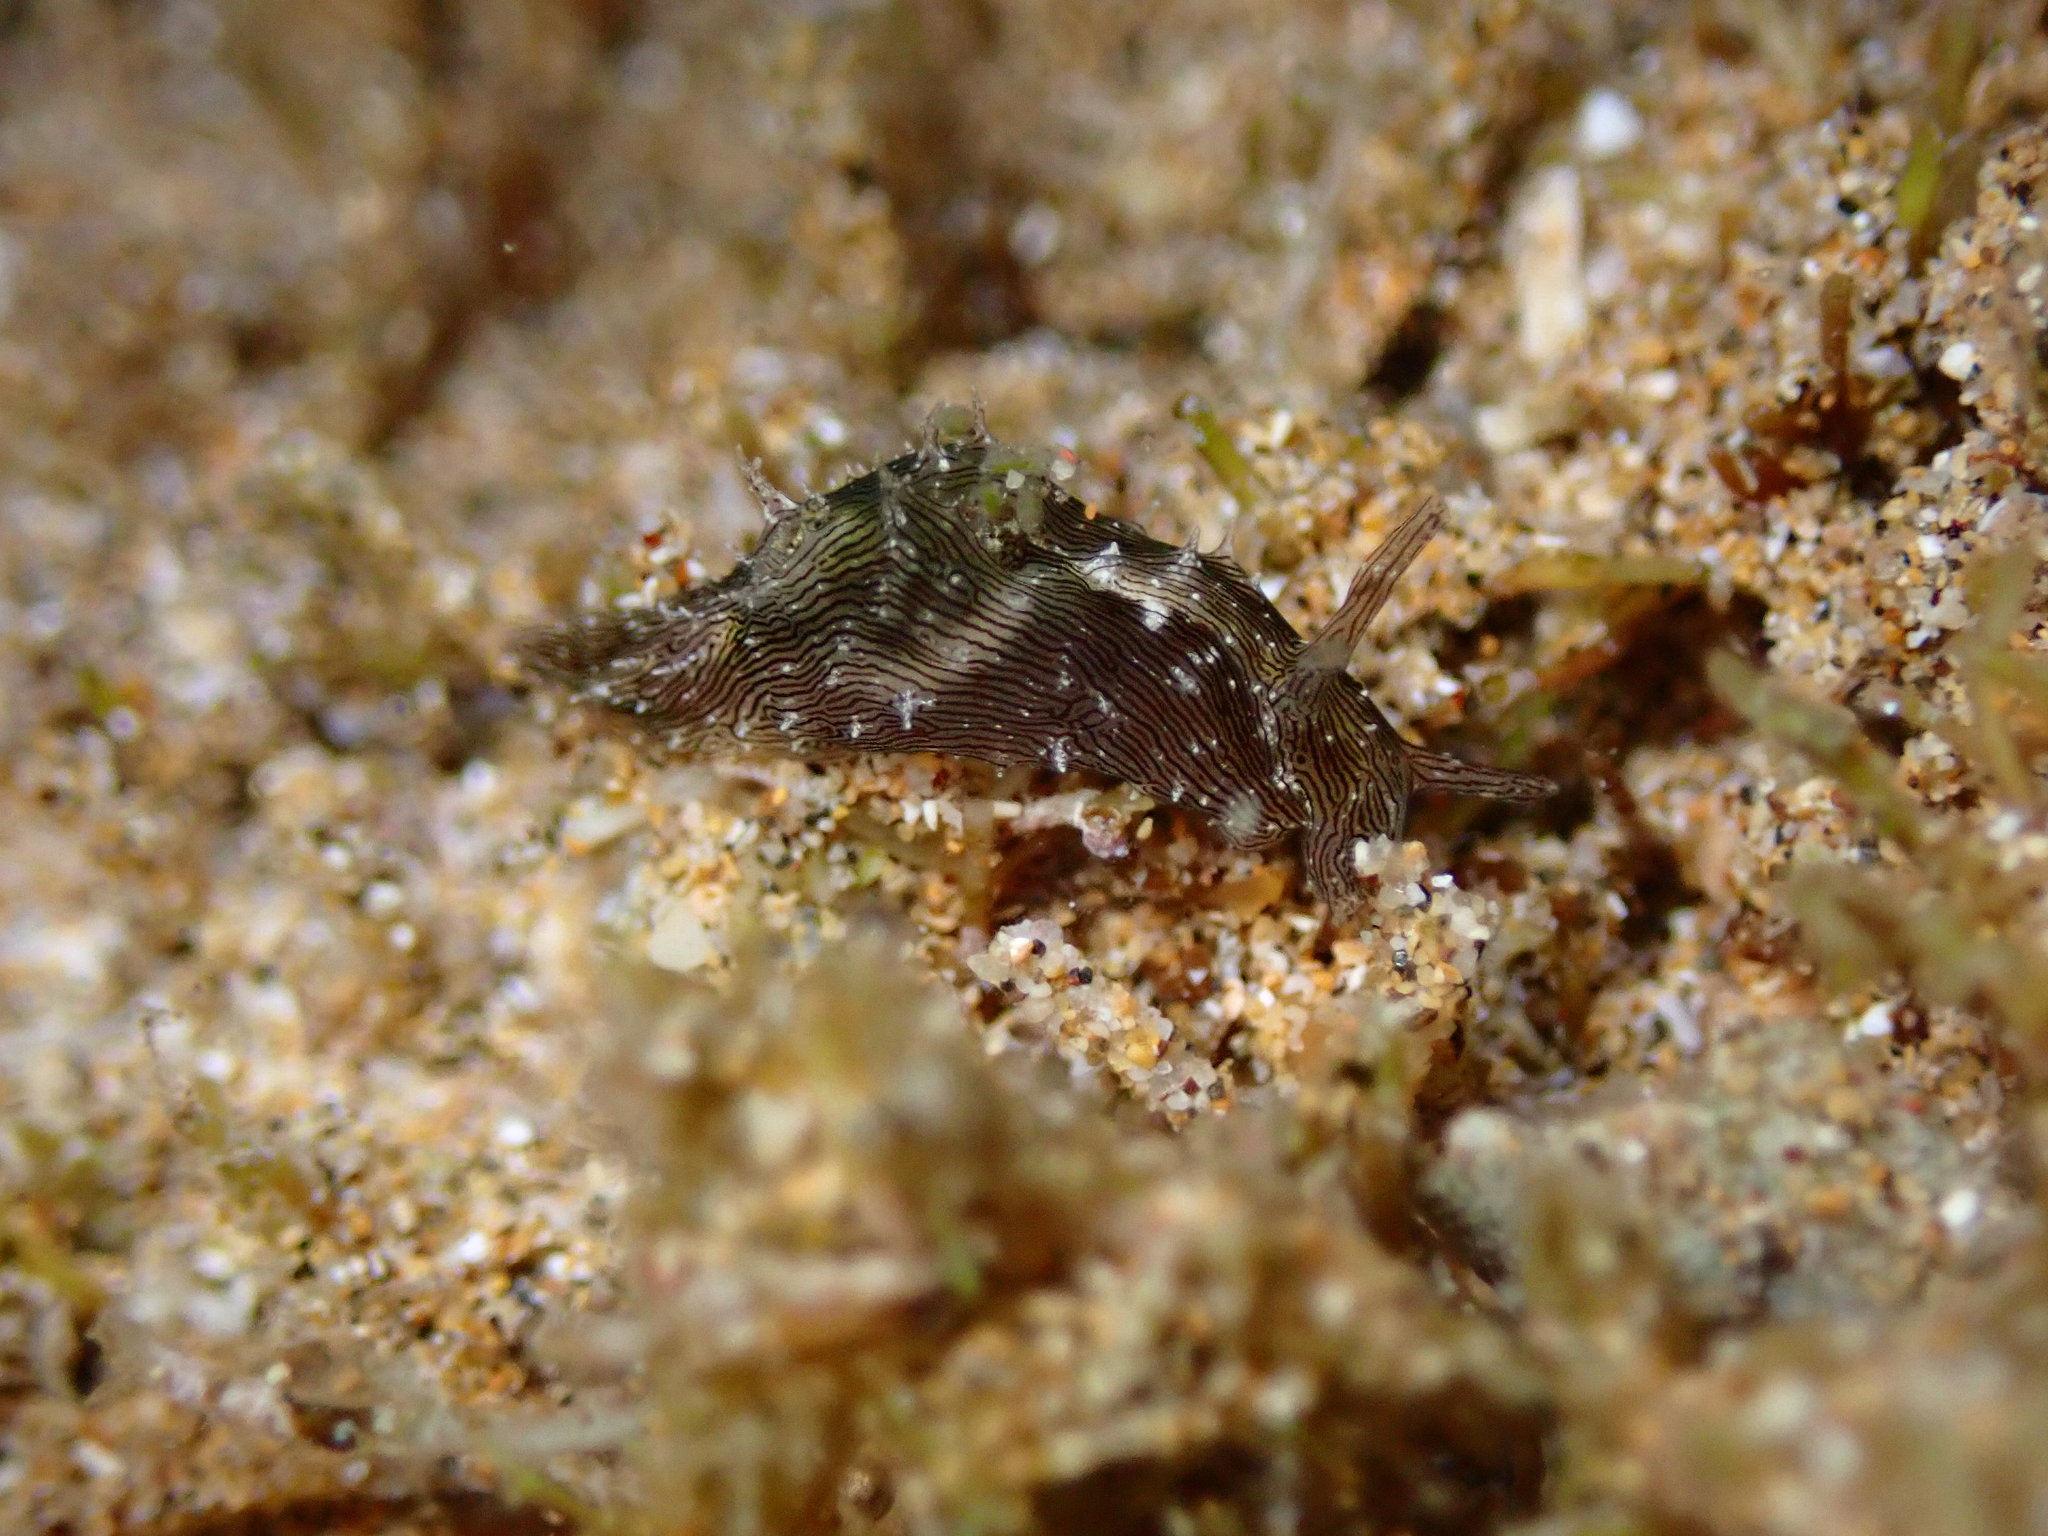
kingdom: Animalia
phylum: Mollusca
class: Gastropoda
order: Aplysiida
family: Aplysiidae
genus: Stylocheilus
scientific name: Stylocheilus striatus
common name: Striated seahare
